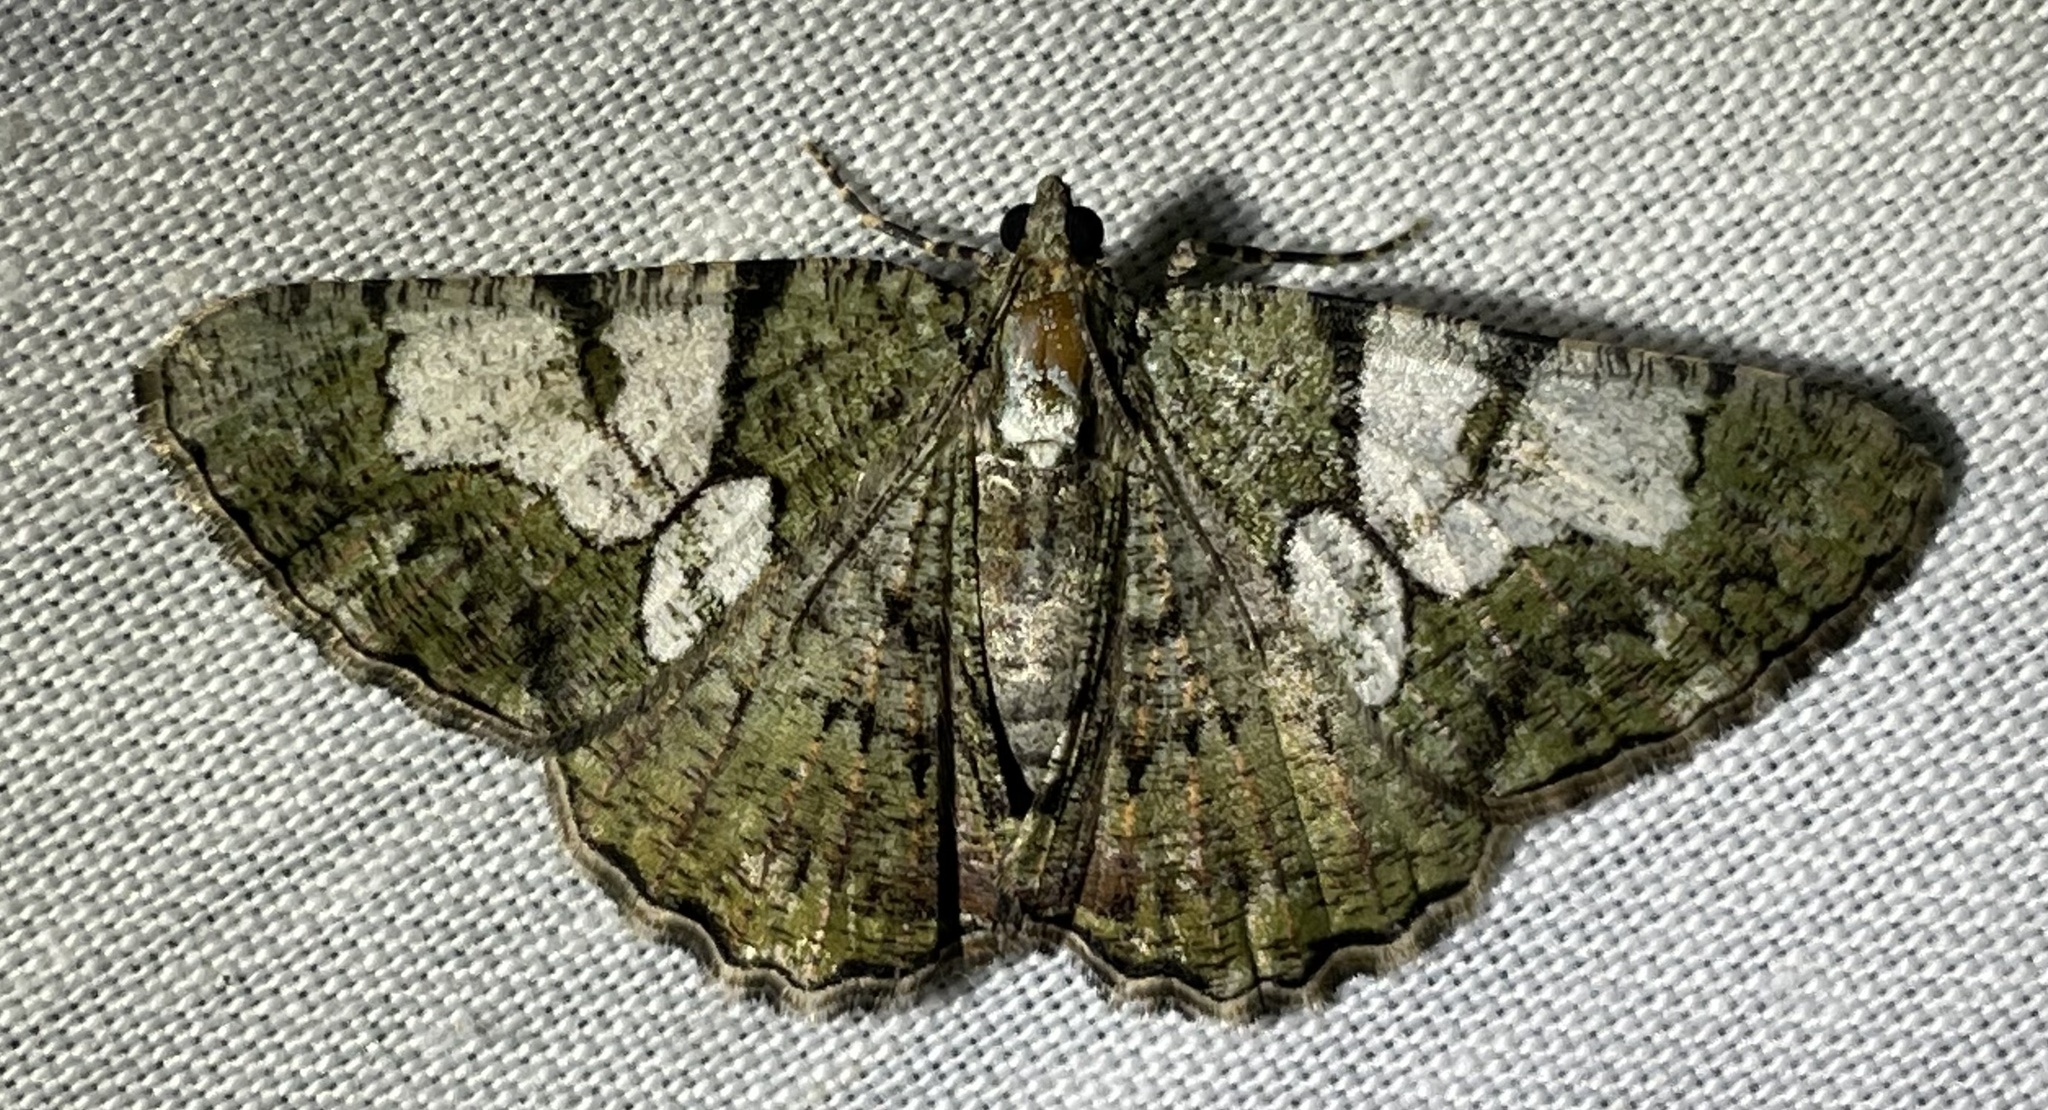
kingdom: Animalia
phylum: Arthropoda
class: Insecta
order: Lepidoptera
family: Geometridae
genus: Xylopteryx
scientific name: Xylopteryx prasinaria
